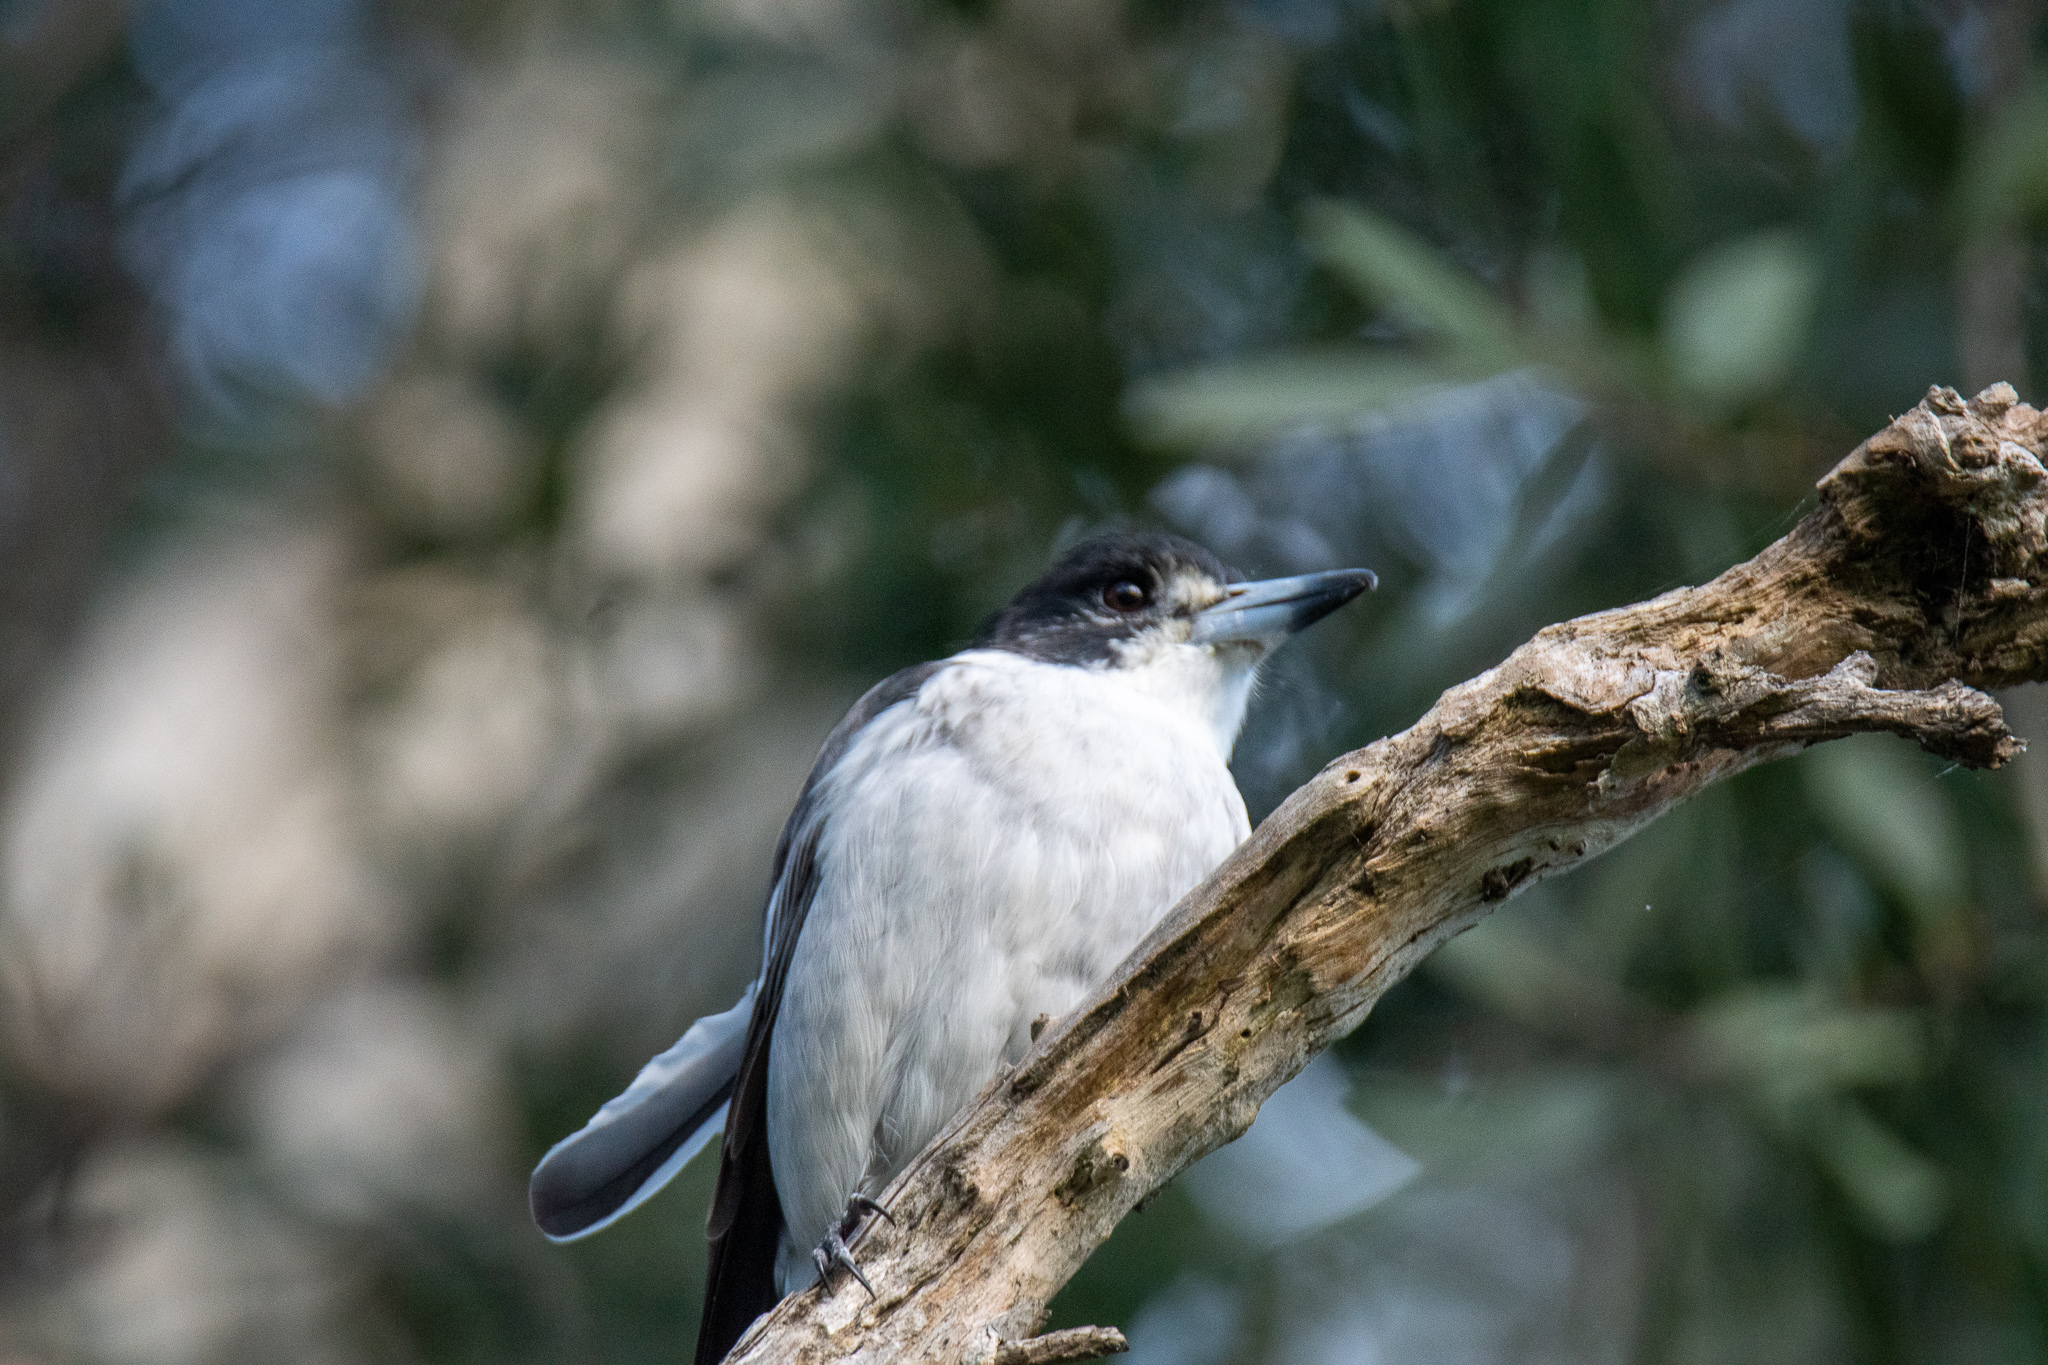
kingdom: Animalia
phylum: Chordata
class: Aves
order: Passeriformes
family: Cracticidae
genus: Cracticus
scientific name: Cracticus torquatus
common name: Grey butcherbird
